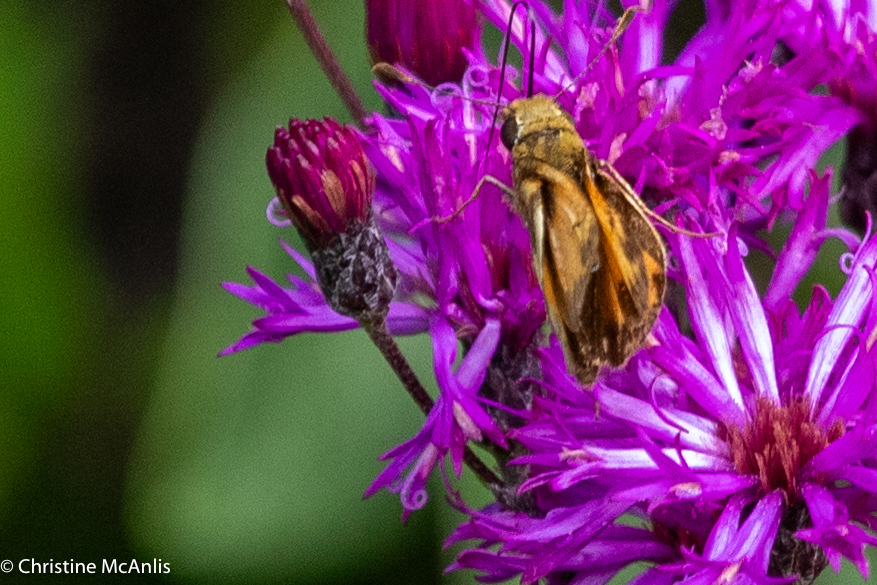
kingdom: Animalia
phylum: Arthropoda
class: Insecta
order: Lepidoptera
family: Hesperiidae
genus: Lon
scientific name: Lon zabulon
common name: Zabulon skipper
